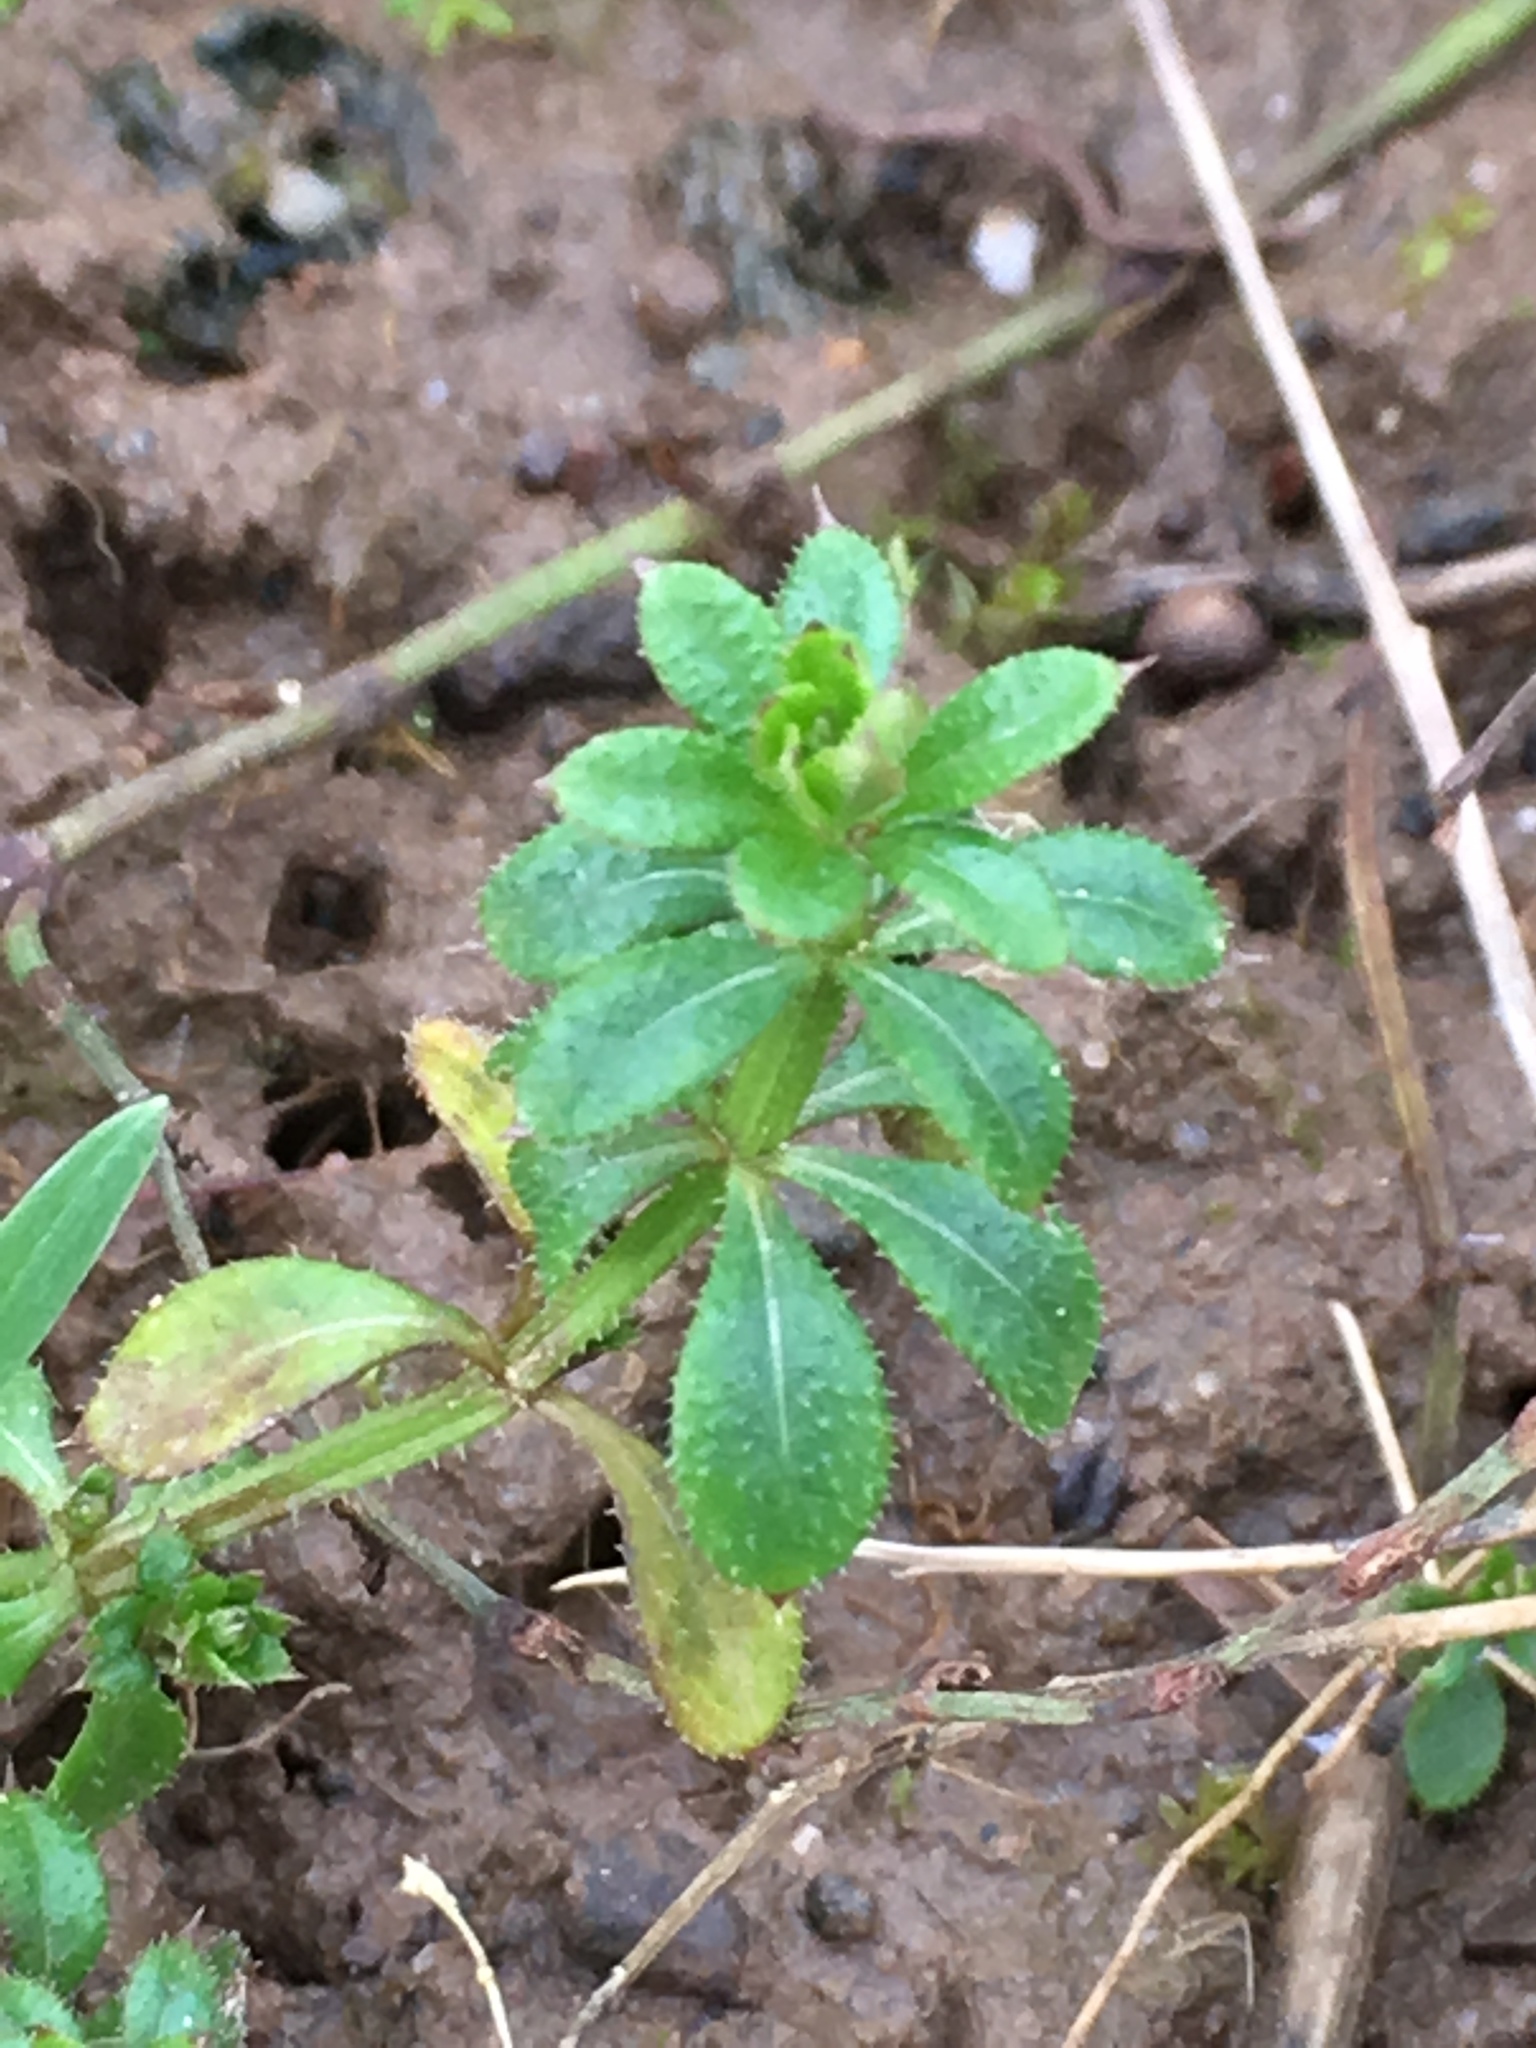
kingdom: Plantae
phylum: Tracheophyta
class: Magnoliopsida
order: Gentianales
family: Rubiaceae
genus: Galium
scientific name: Galium aparine
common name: Cleavers
